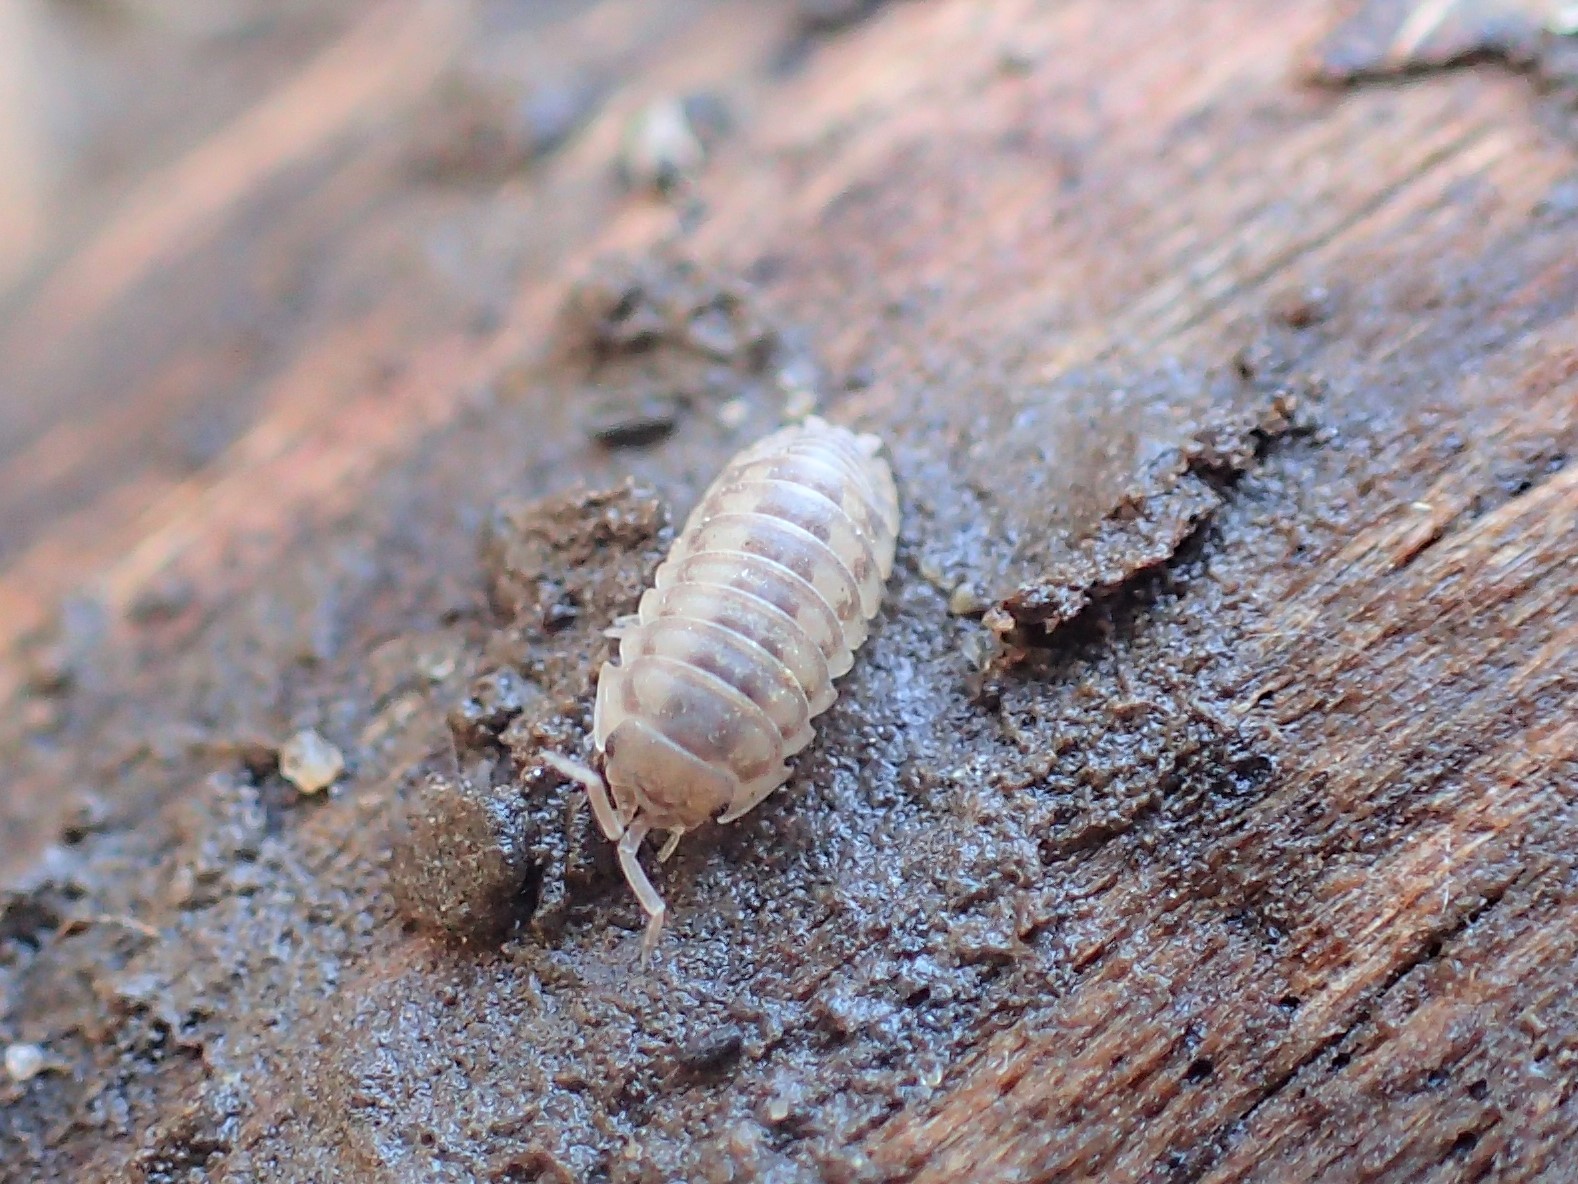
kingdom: Animalia
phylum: Arthropoda
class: Malacostraca
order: Isopoda
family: Armadillidiidae
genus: Armadillidium
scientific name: Armadillidium nasatum
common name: Isopod
